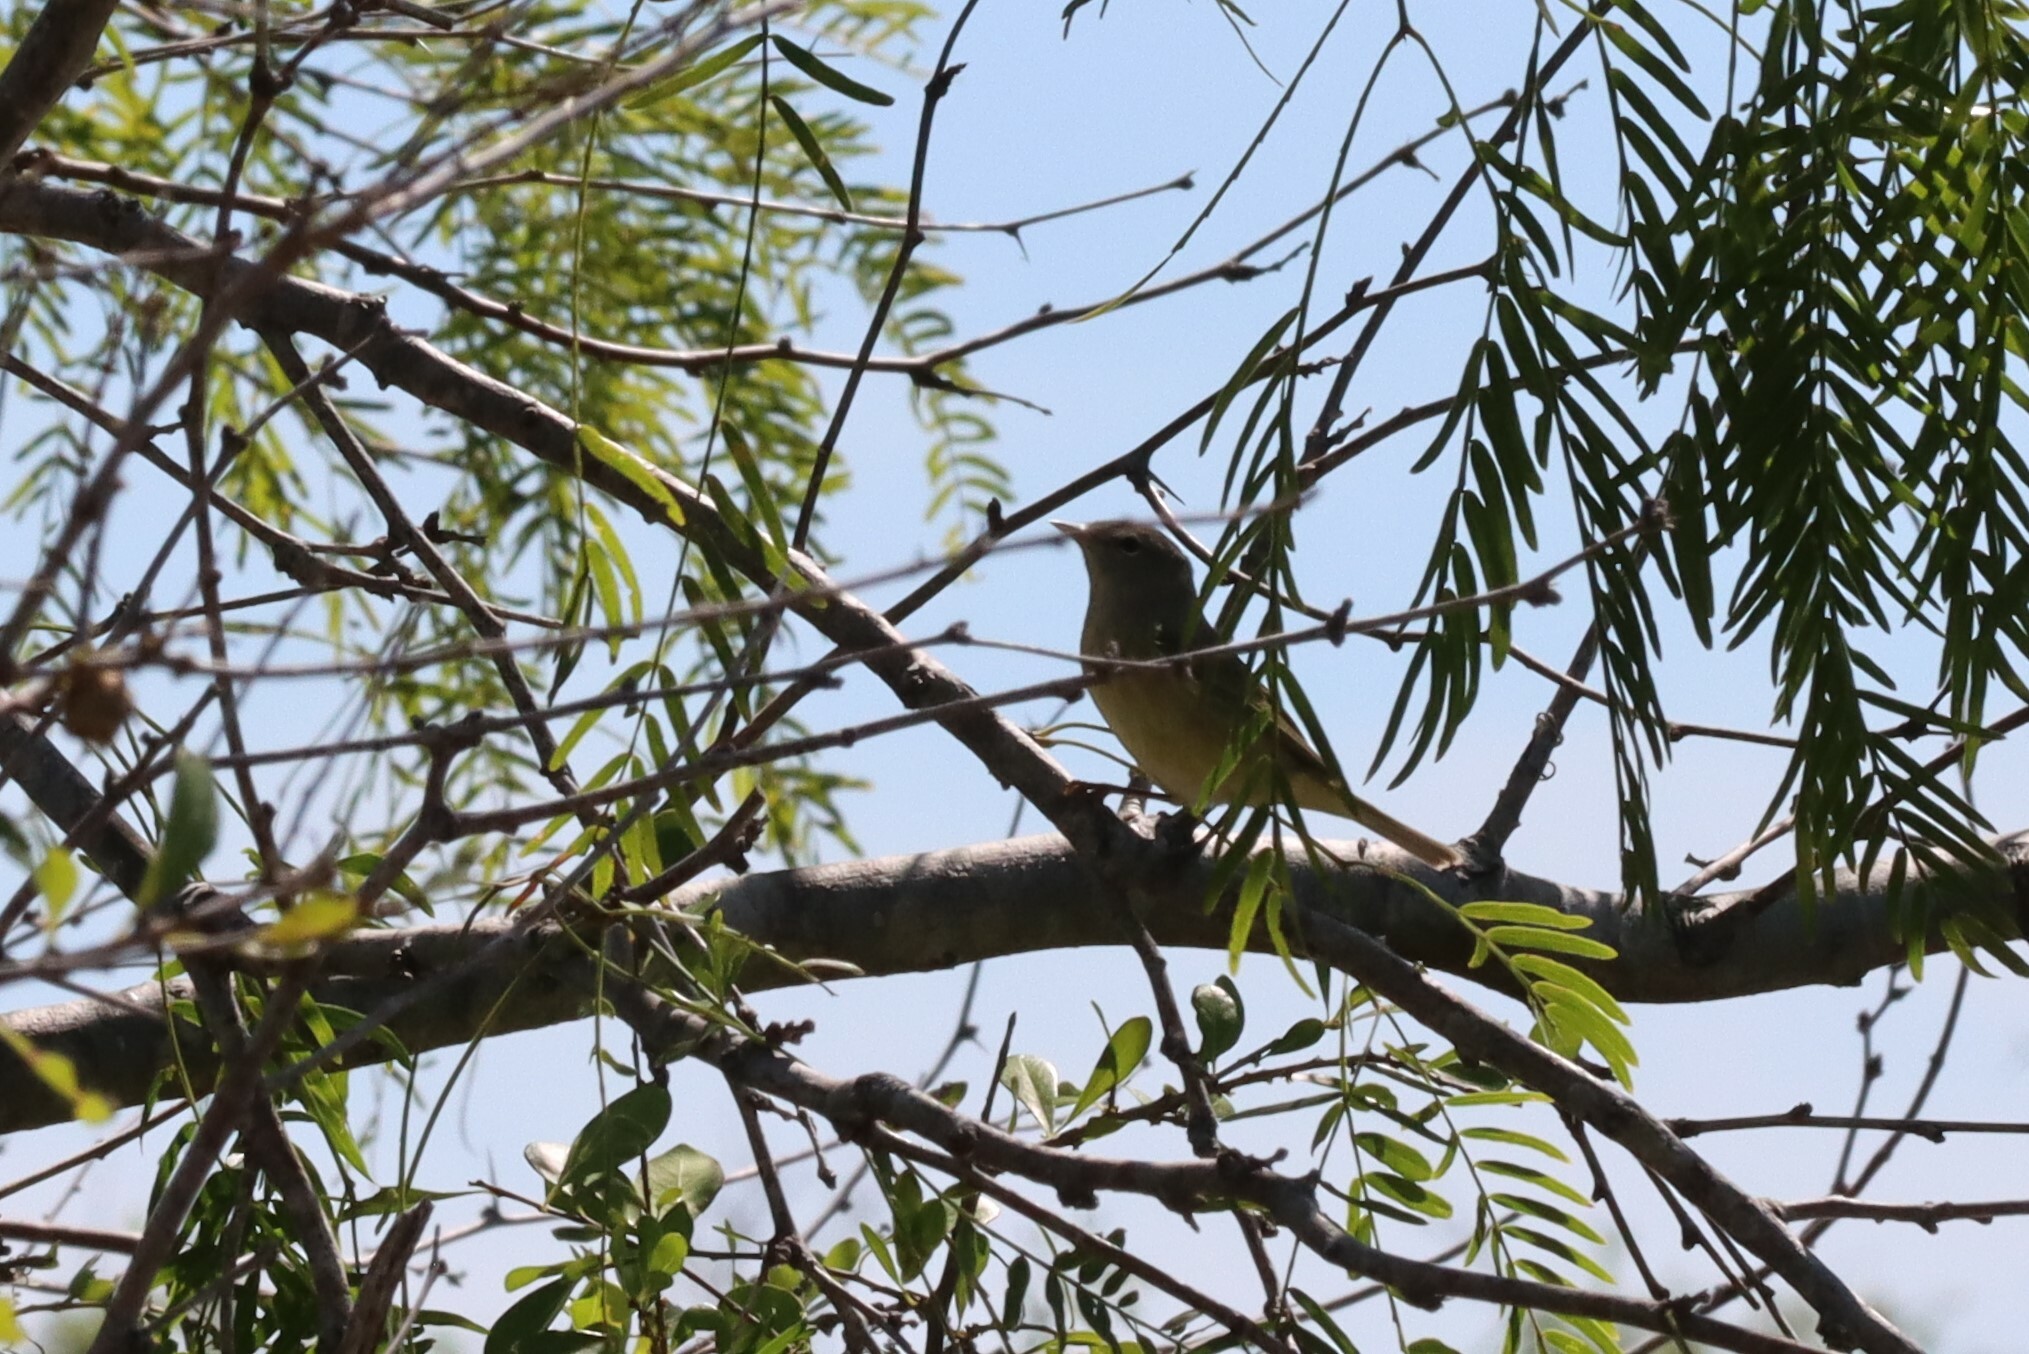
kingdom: Animalia
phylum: Chordata
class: Aves
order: Passeriformes
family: Parulidae
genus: Leiothlypis
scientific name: Leiothlypis celata
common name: Orange-crowned warbler
